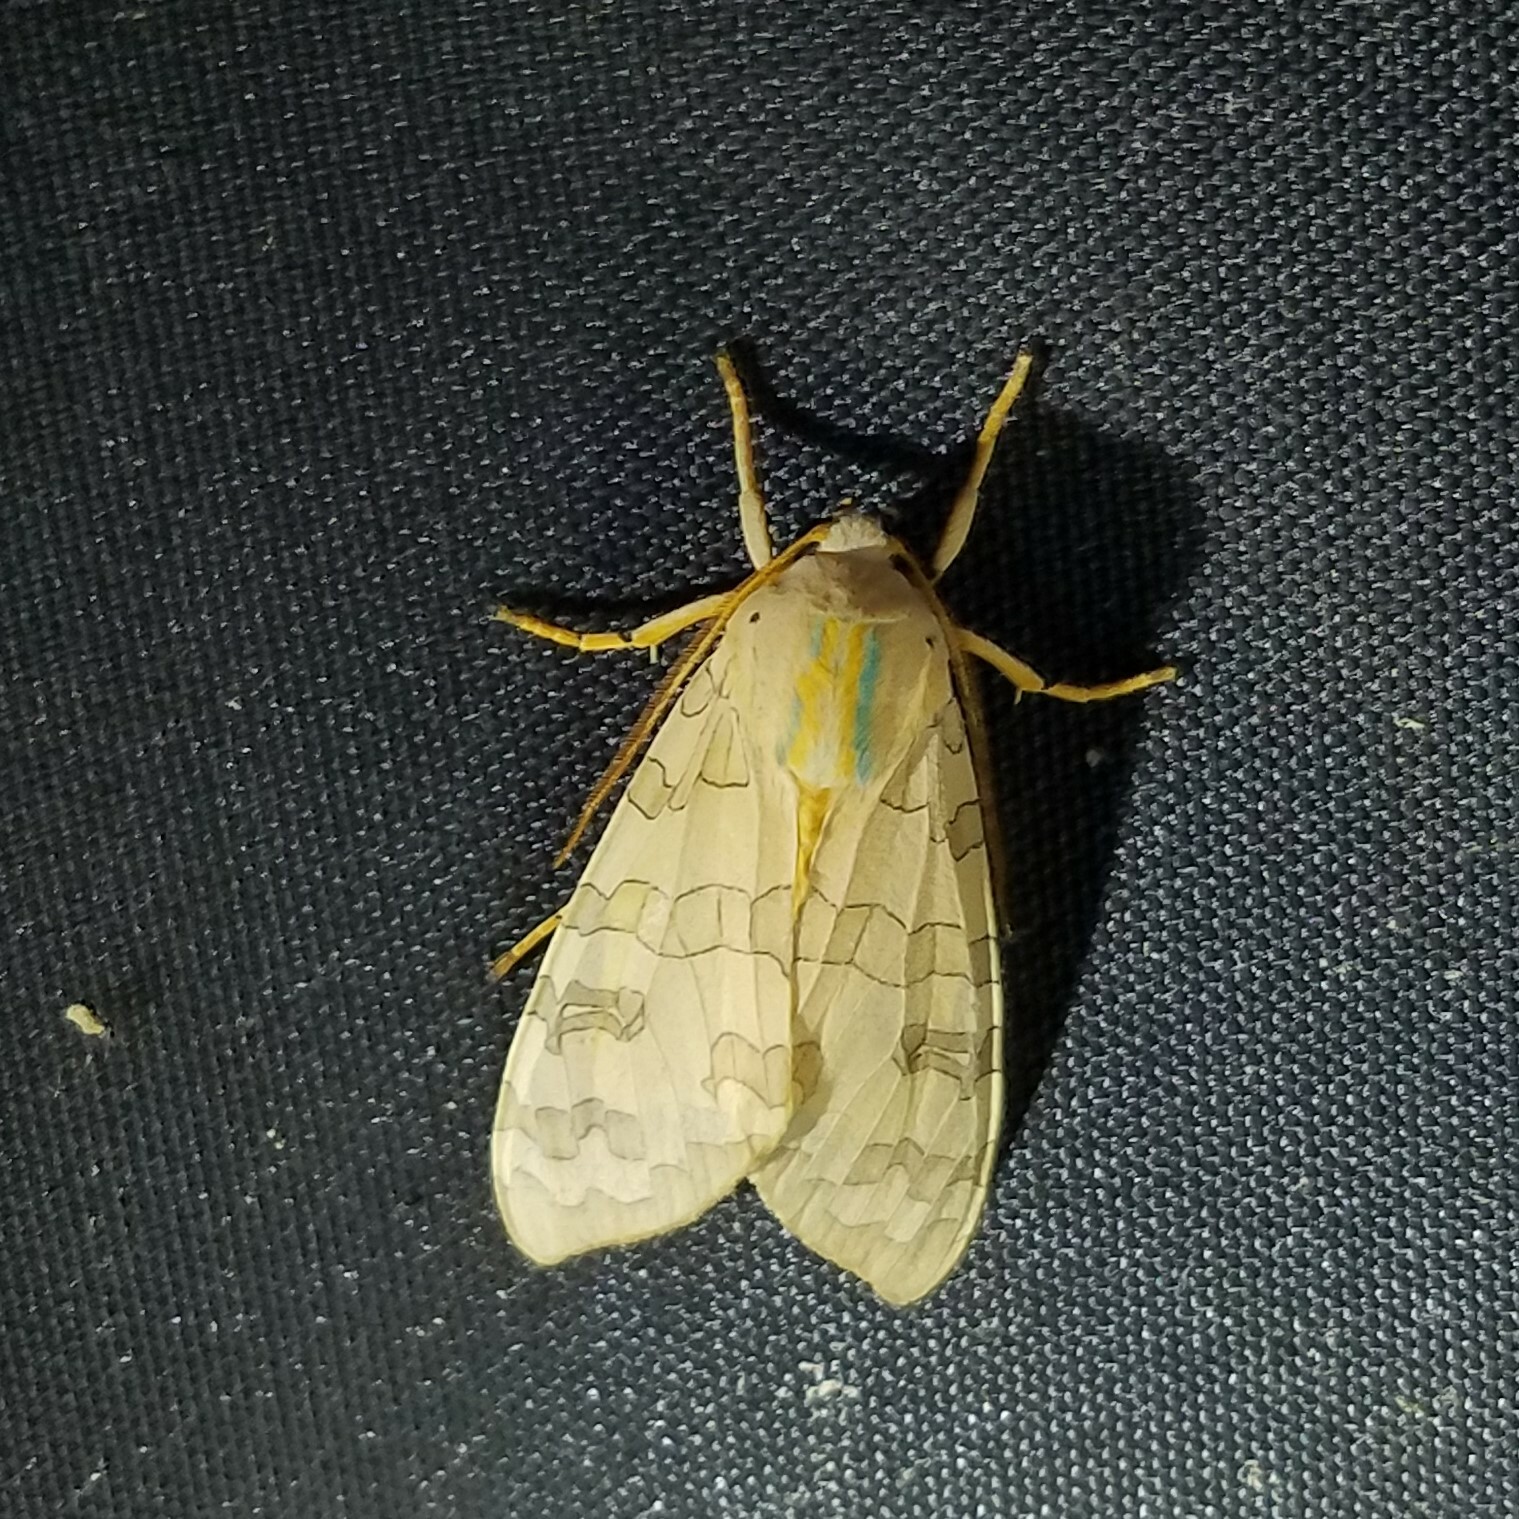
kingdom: Animalia
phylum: Arthropoda
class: Insecta
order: Lepidoptera
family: Erebidae
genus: Halysidota
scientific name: Halysidota
